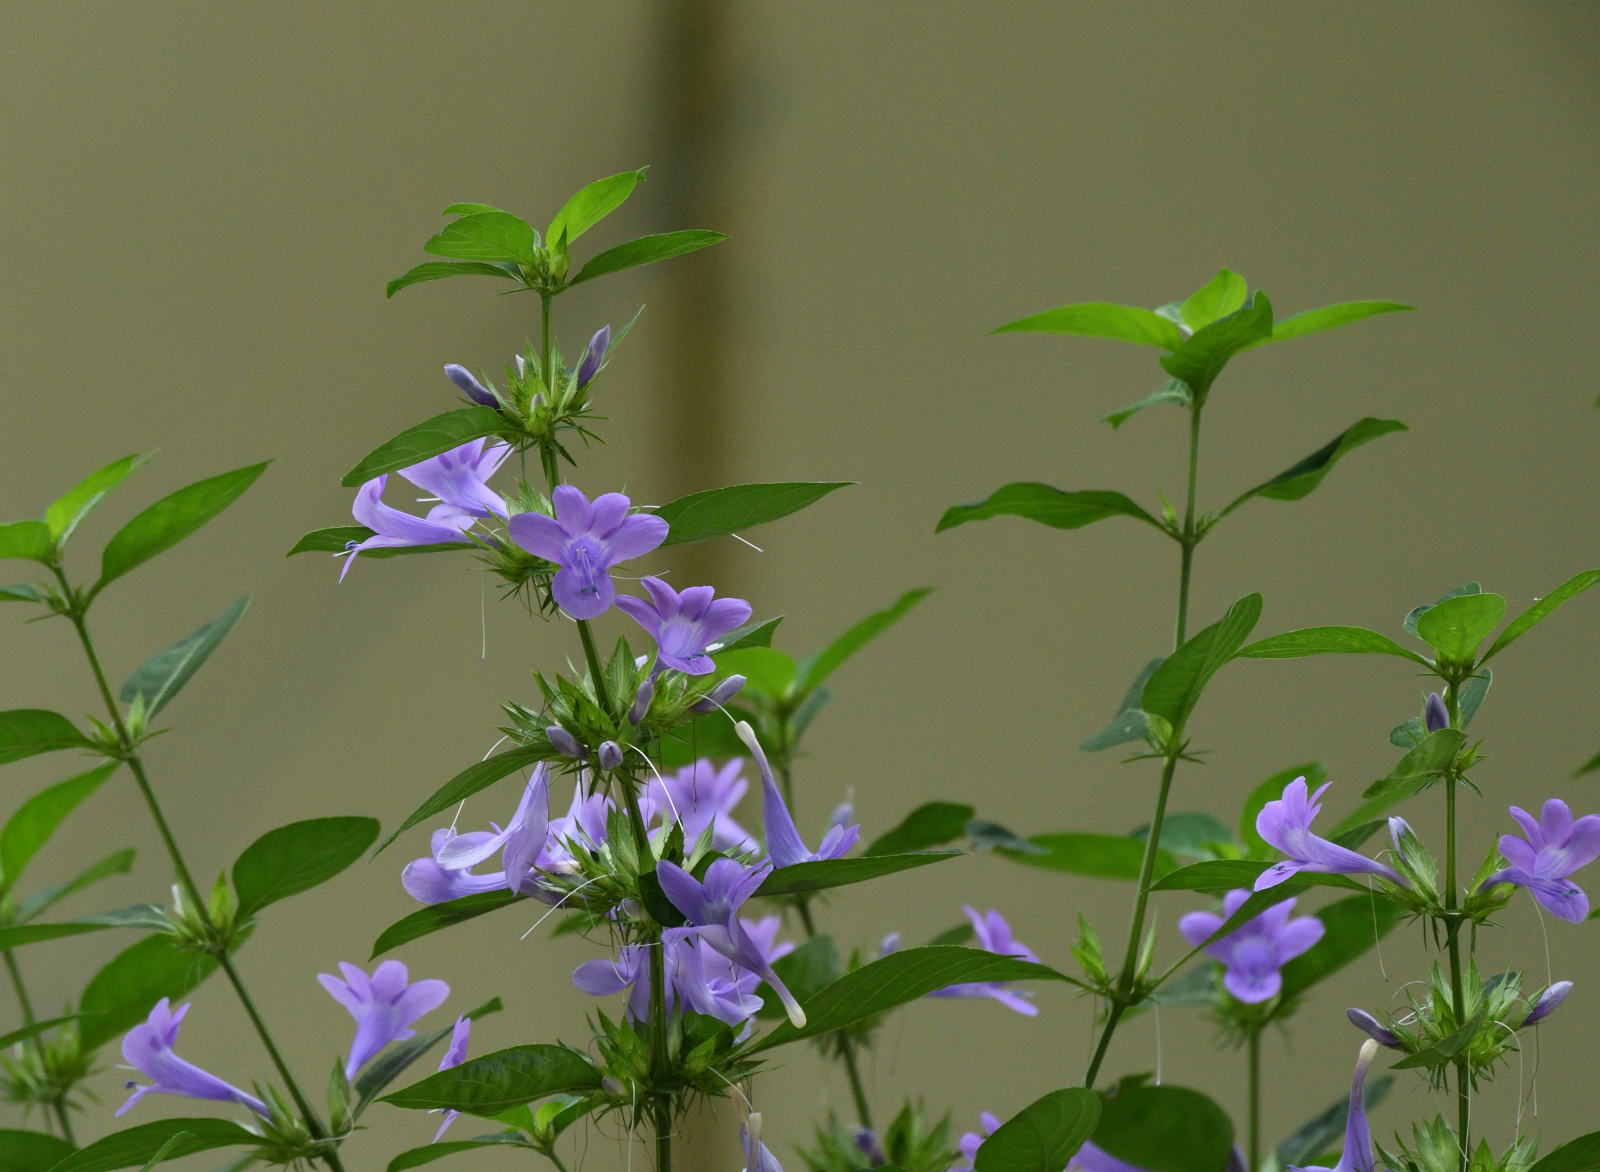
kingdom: Plantae
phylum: Tracheophyta
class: Magnoliopsida
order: Lamiales
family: Acanthaceae
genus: Barleria
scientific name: Barleria cristata
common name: Crested philippine violet
